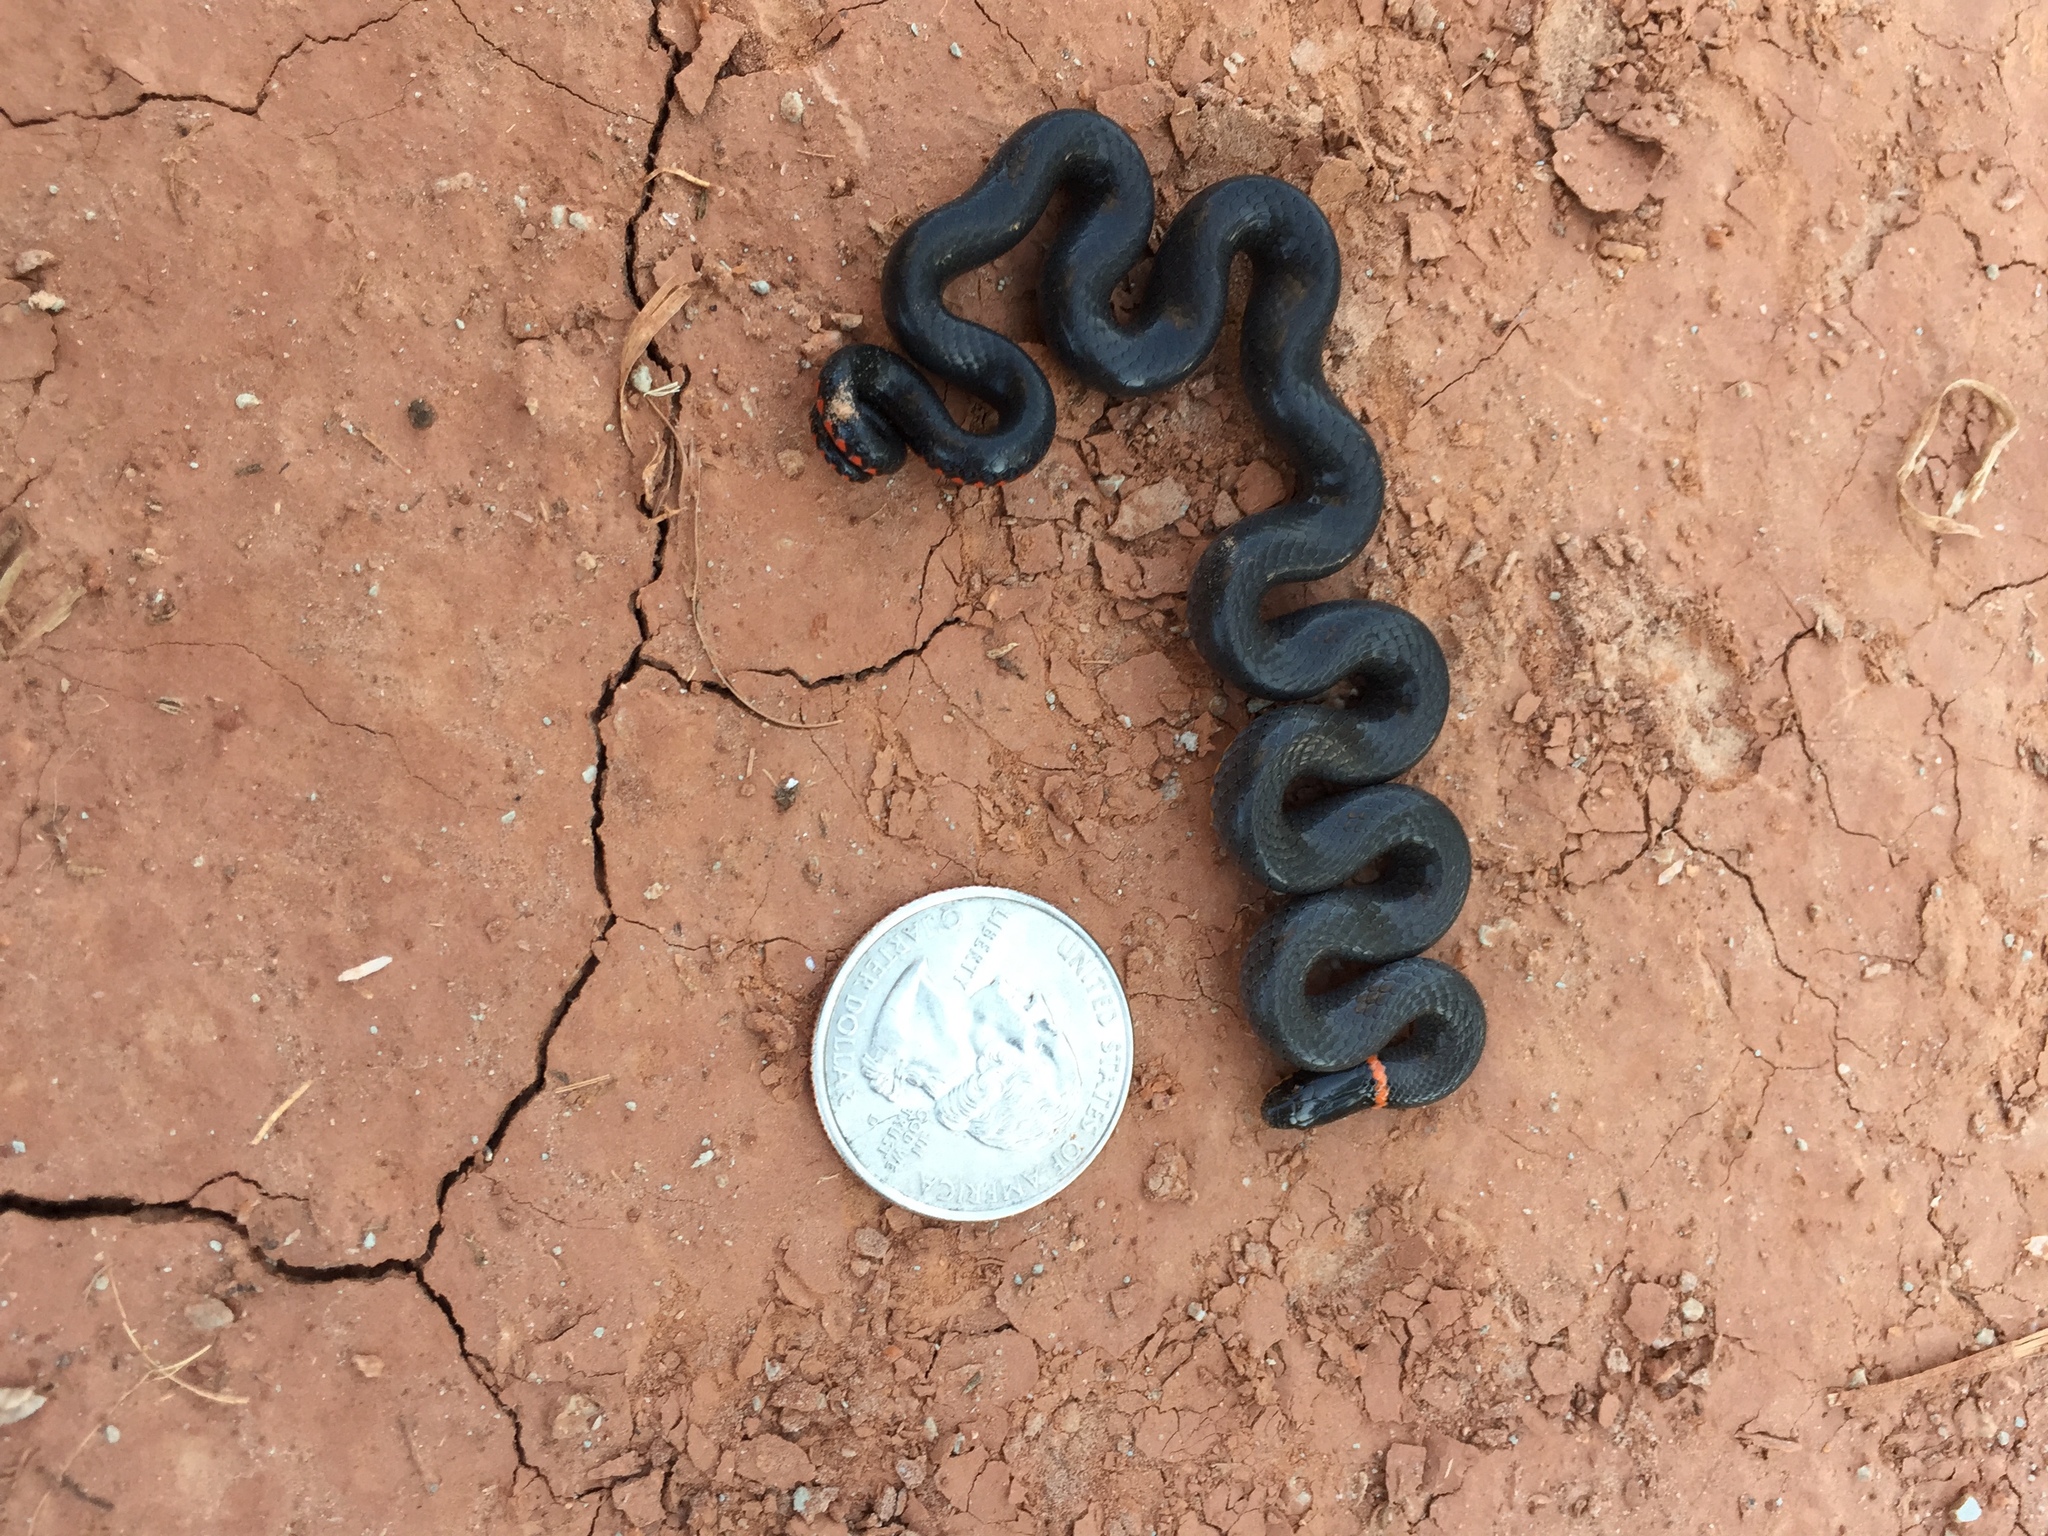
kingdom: Animalia
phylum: Chordata
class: Squamata
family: Colubridae
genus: Diadophis
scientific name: Diadophis punctatus
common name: Ringneck snake
